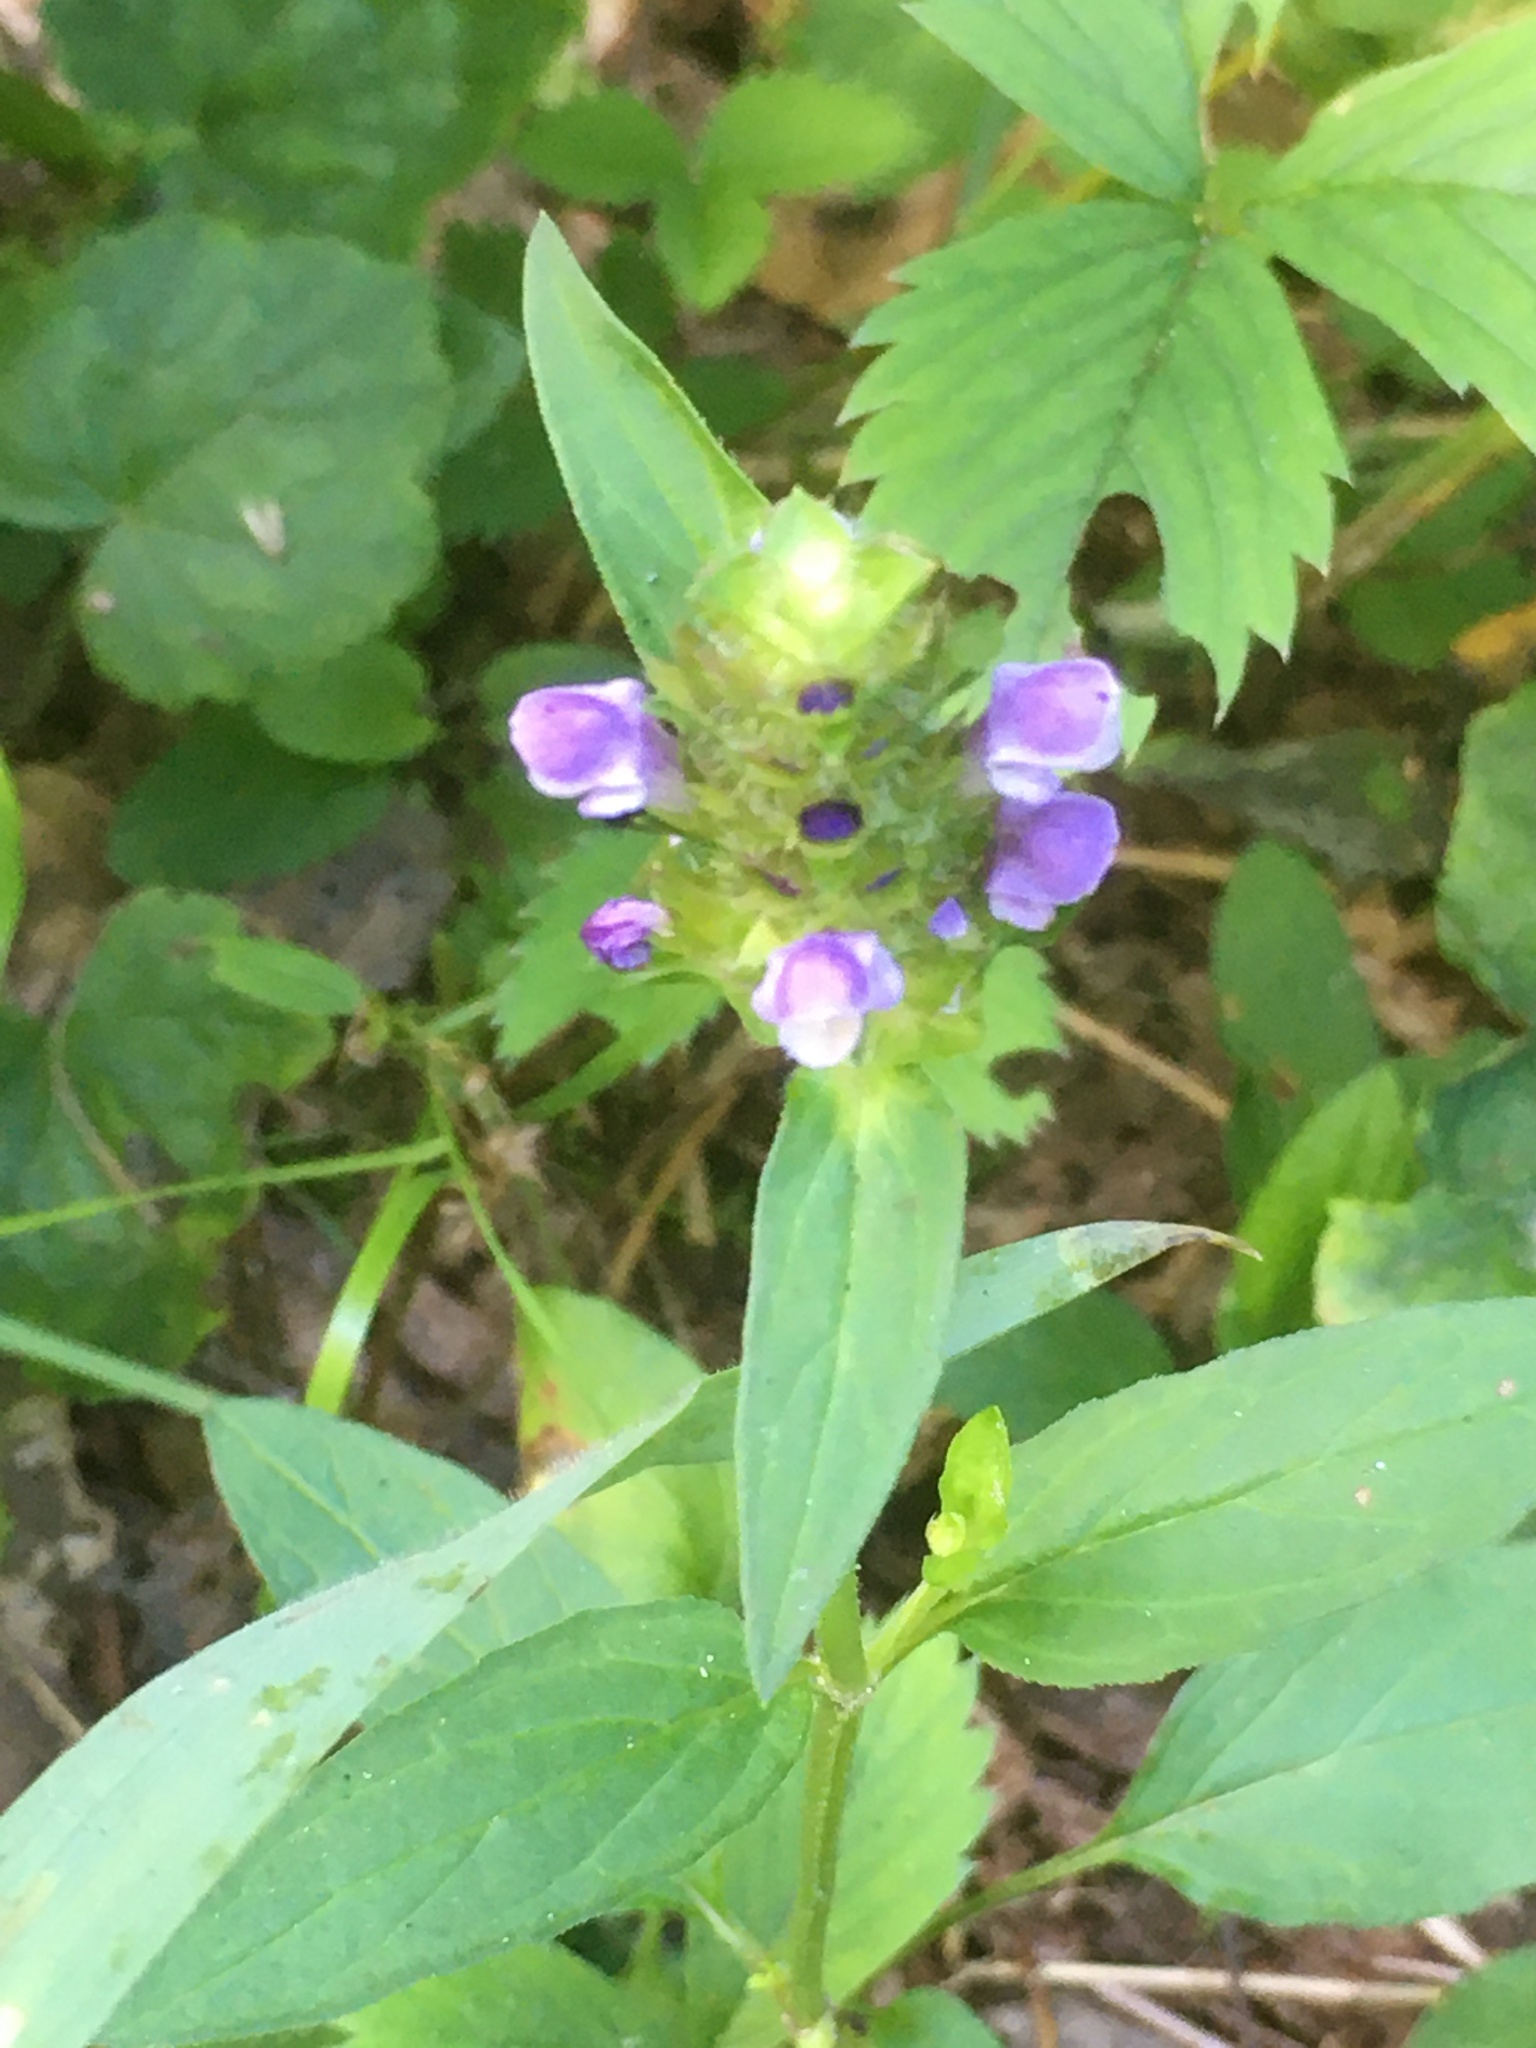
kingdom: Plantae
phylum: Tracheophyta
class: Magnoliopsida
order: Lamiales
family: Lamiaceae
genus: Prunella
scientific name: Prunella vulgaris
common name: Heal-all
